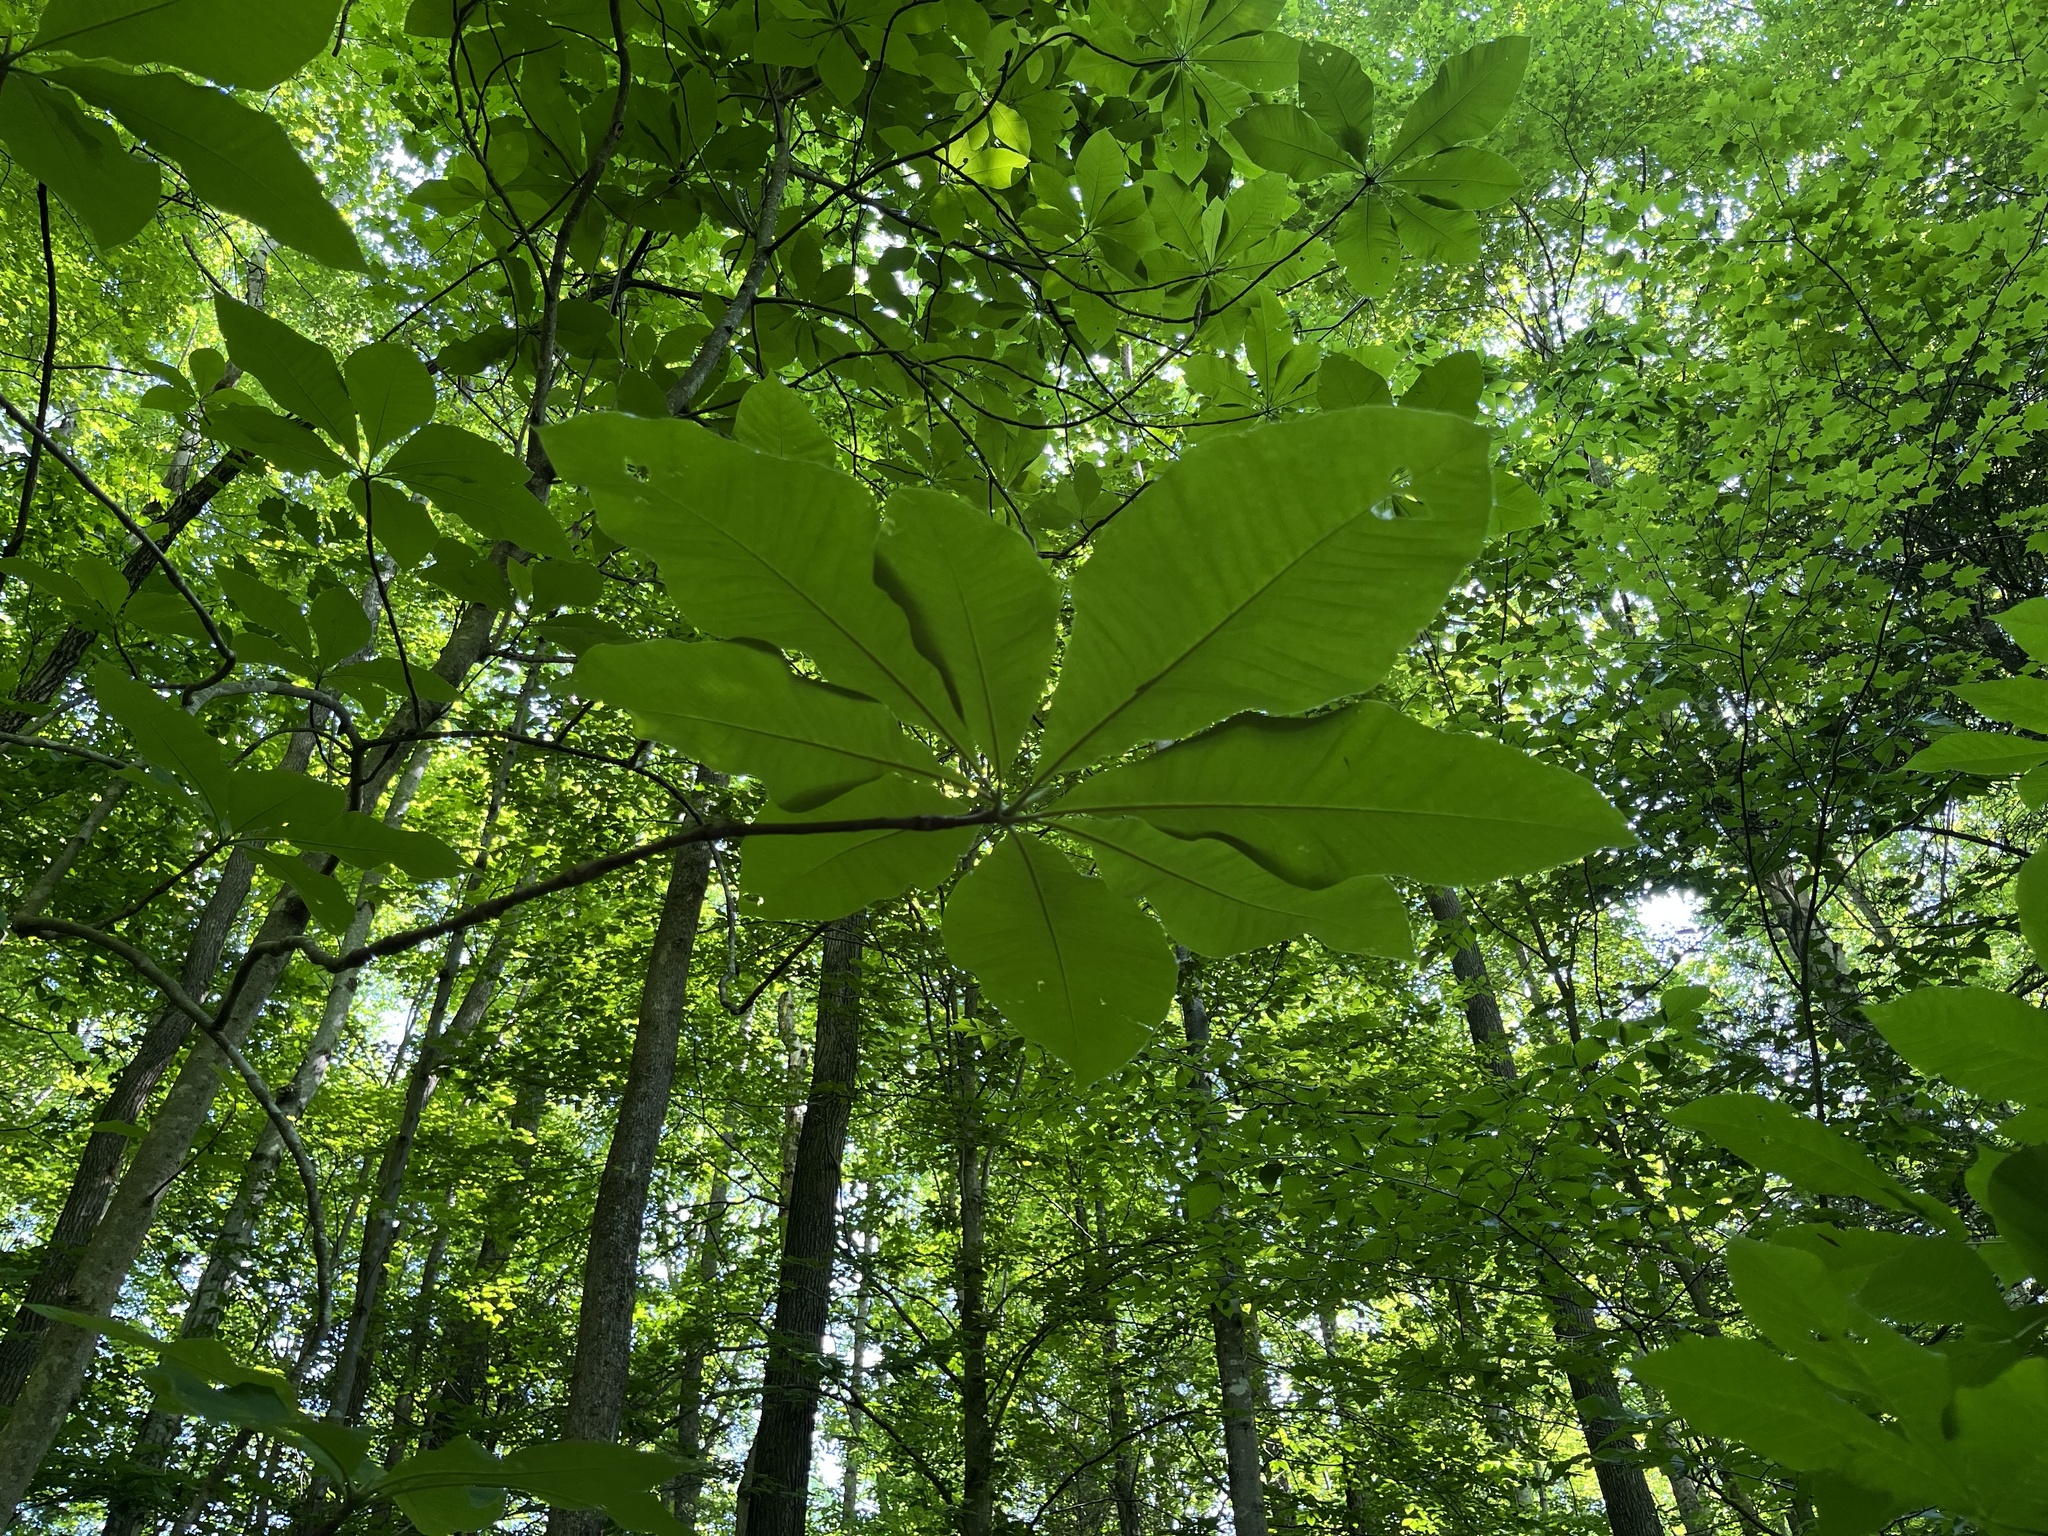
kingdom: Plantae
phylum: Tracheophyta
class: Magnoliopsida
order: Magnoliales
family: Magnoliaceae
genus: Magnolia
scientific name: Magnolia tripetala
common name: Umbrella magnolia
